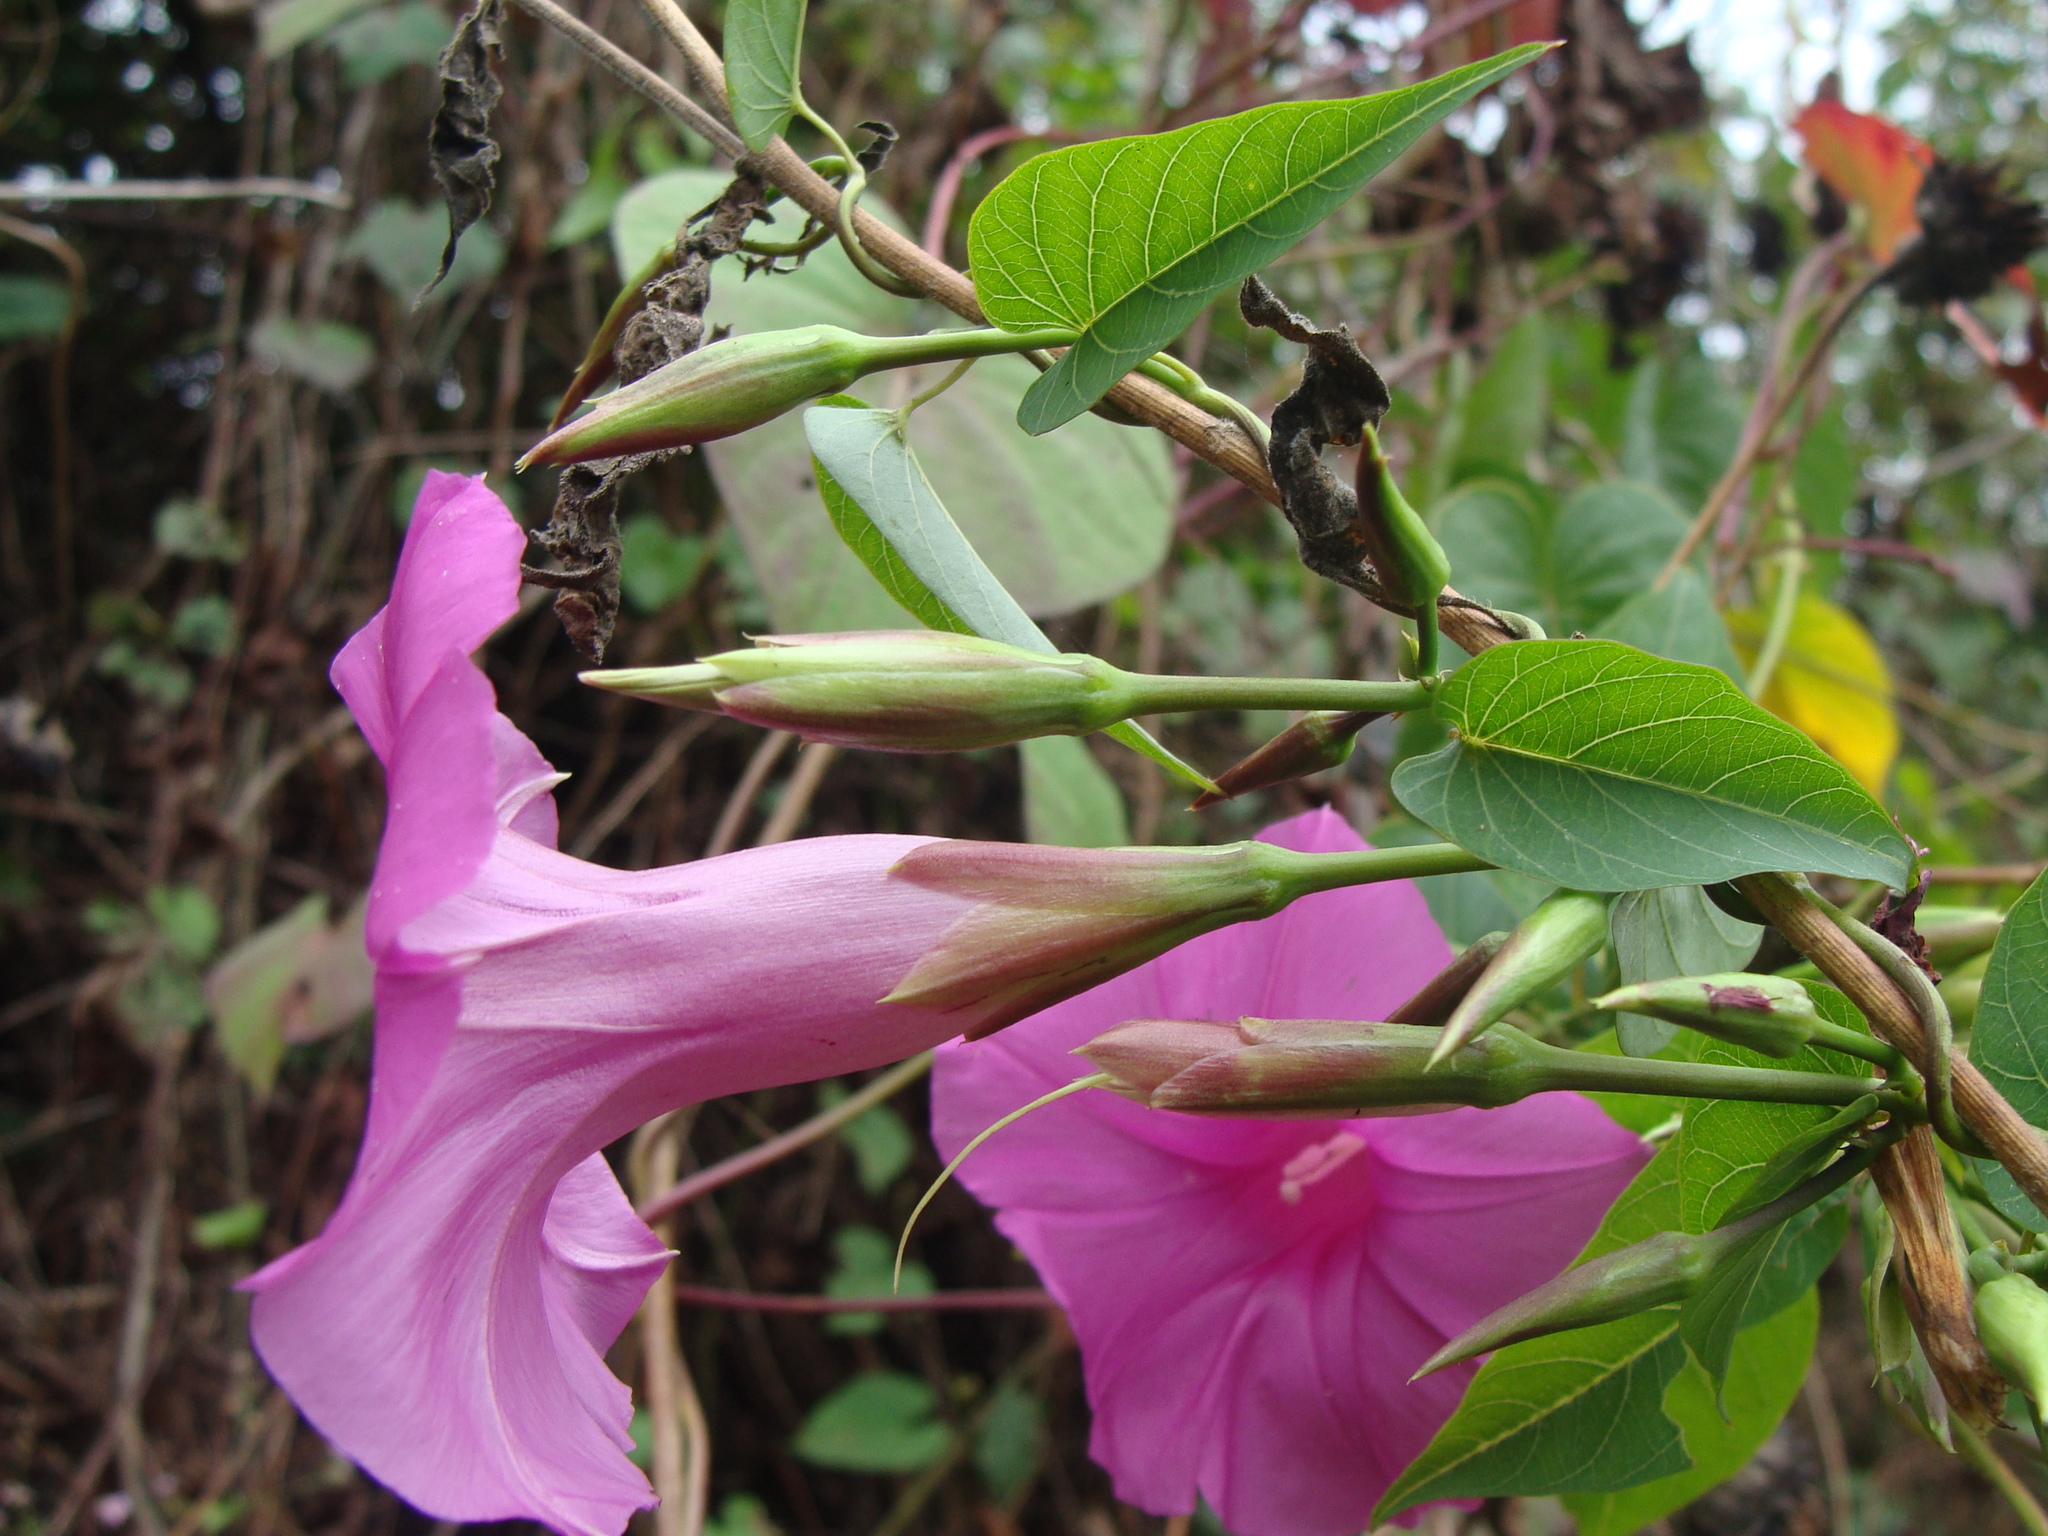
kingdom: Plantae
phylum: Tracheophyta
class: Magnoliopsida
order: Solanales
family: Convolvulaceae
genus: Ipomoea
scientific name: Ipomoea bernoulliana
